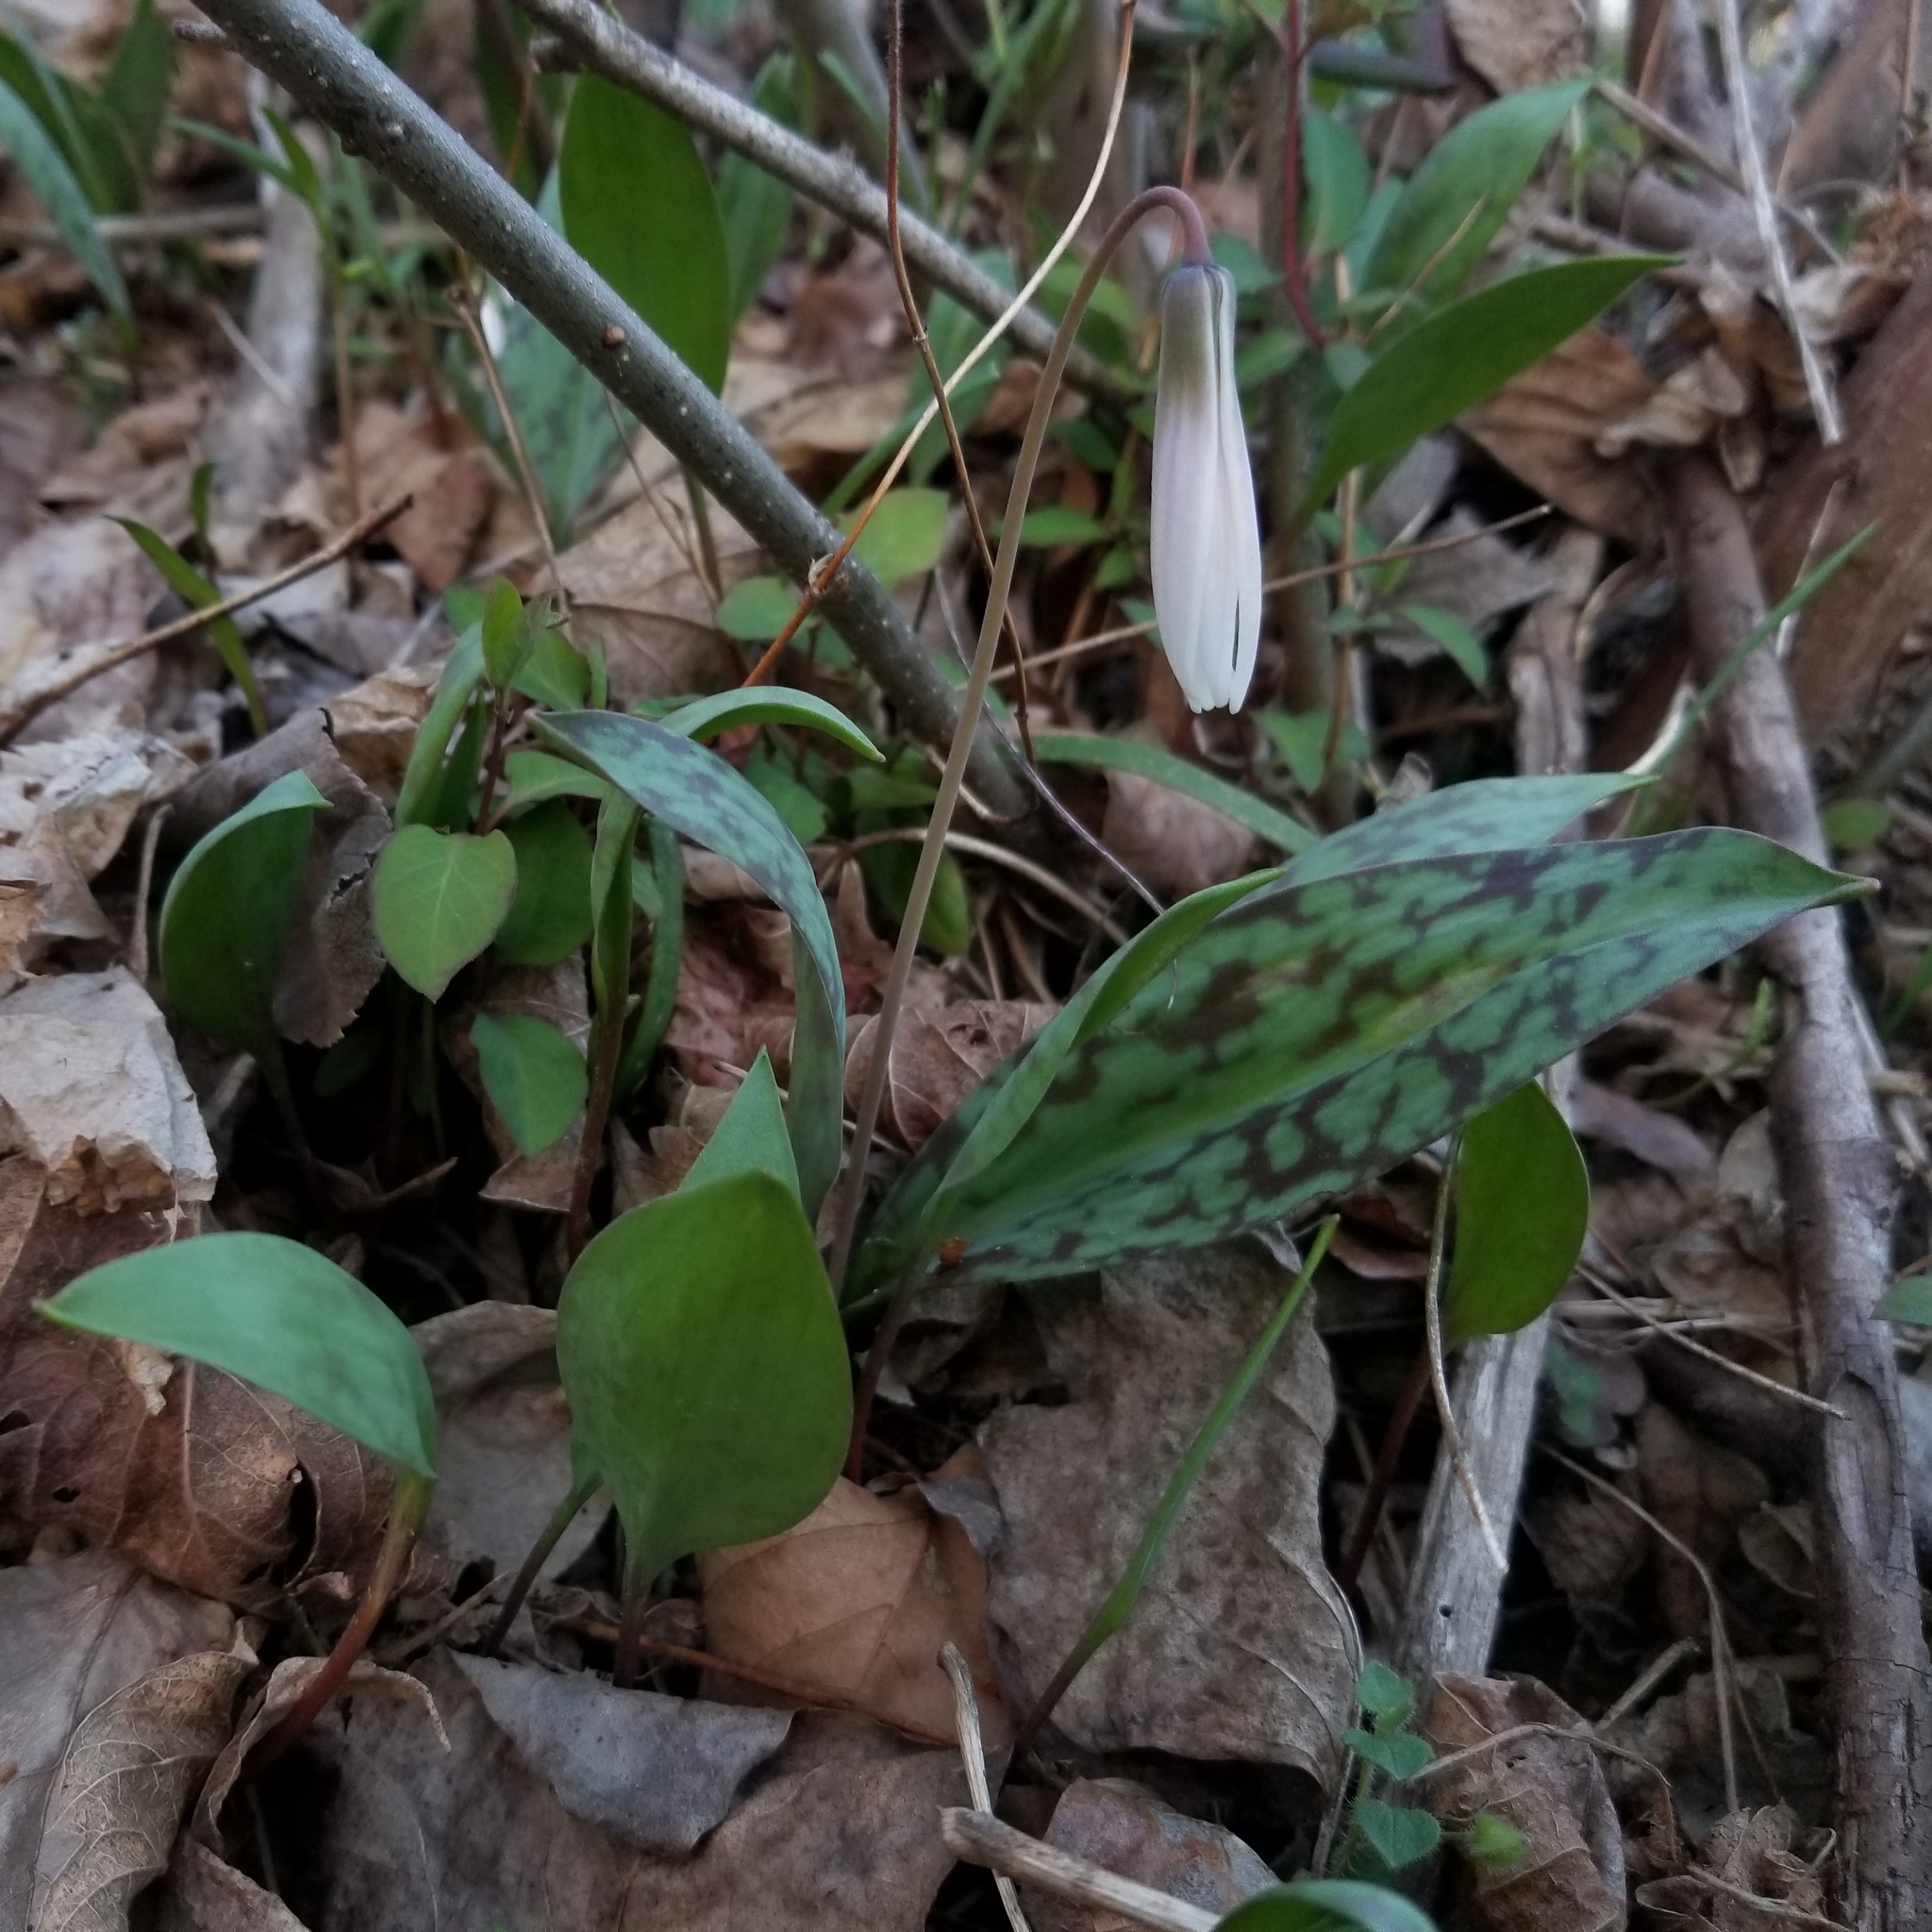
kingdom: Plantae
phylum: Tracheophyta
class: Liliopsida
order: Liliales
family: Liliaceae
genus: Erythronium
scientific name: Erythronium albidum
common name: White trout-lily
